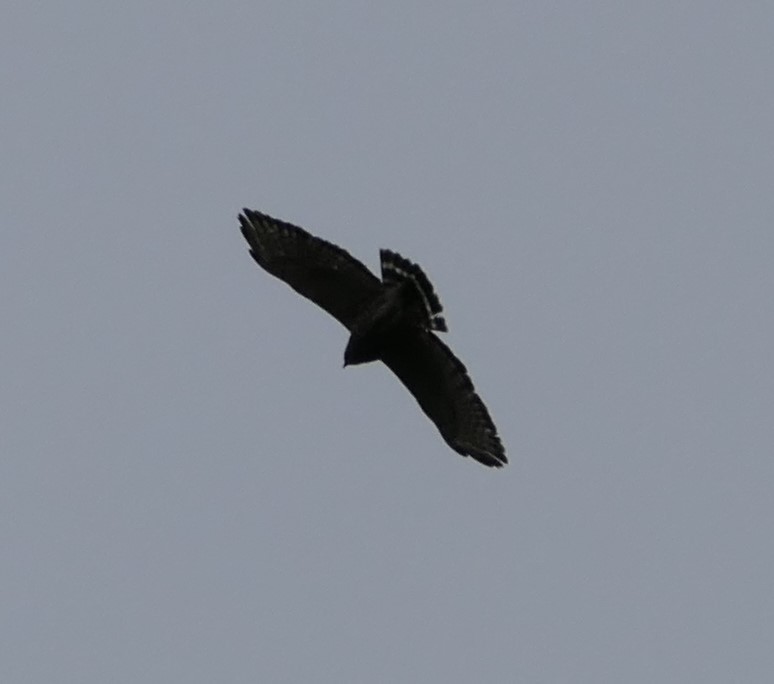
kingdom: Animalia
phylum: Chordata
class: Aves
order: Accipitriformes
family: Accipitridae
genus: Buteo
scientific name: Buteo platypterus
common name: Broad-winged hawk
